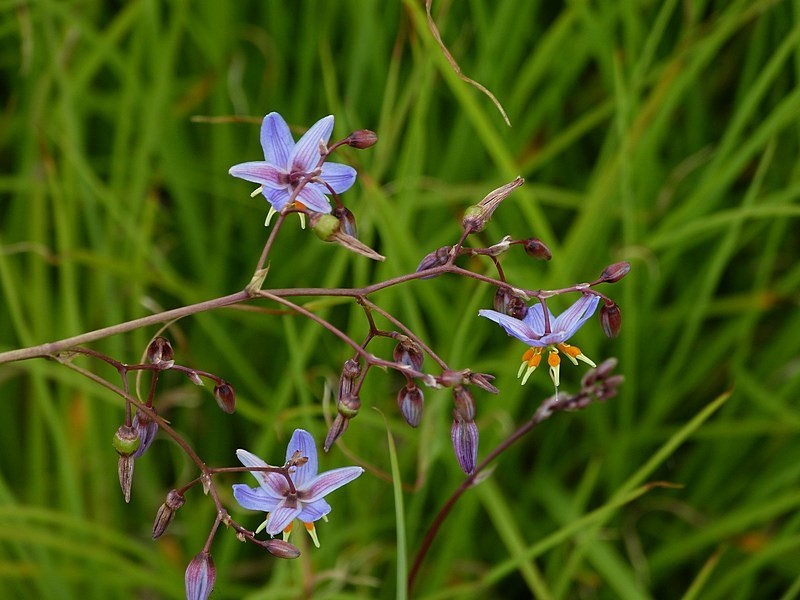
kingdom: Plantae
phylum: Tracheophyta
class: Liliopsida
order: Asparagales
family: Asphodelaceae
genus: Dianella
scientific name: Dianella longifolia
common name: Blue flax-lily
